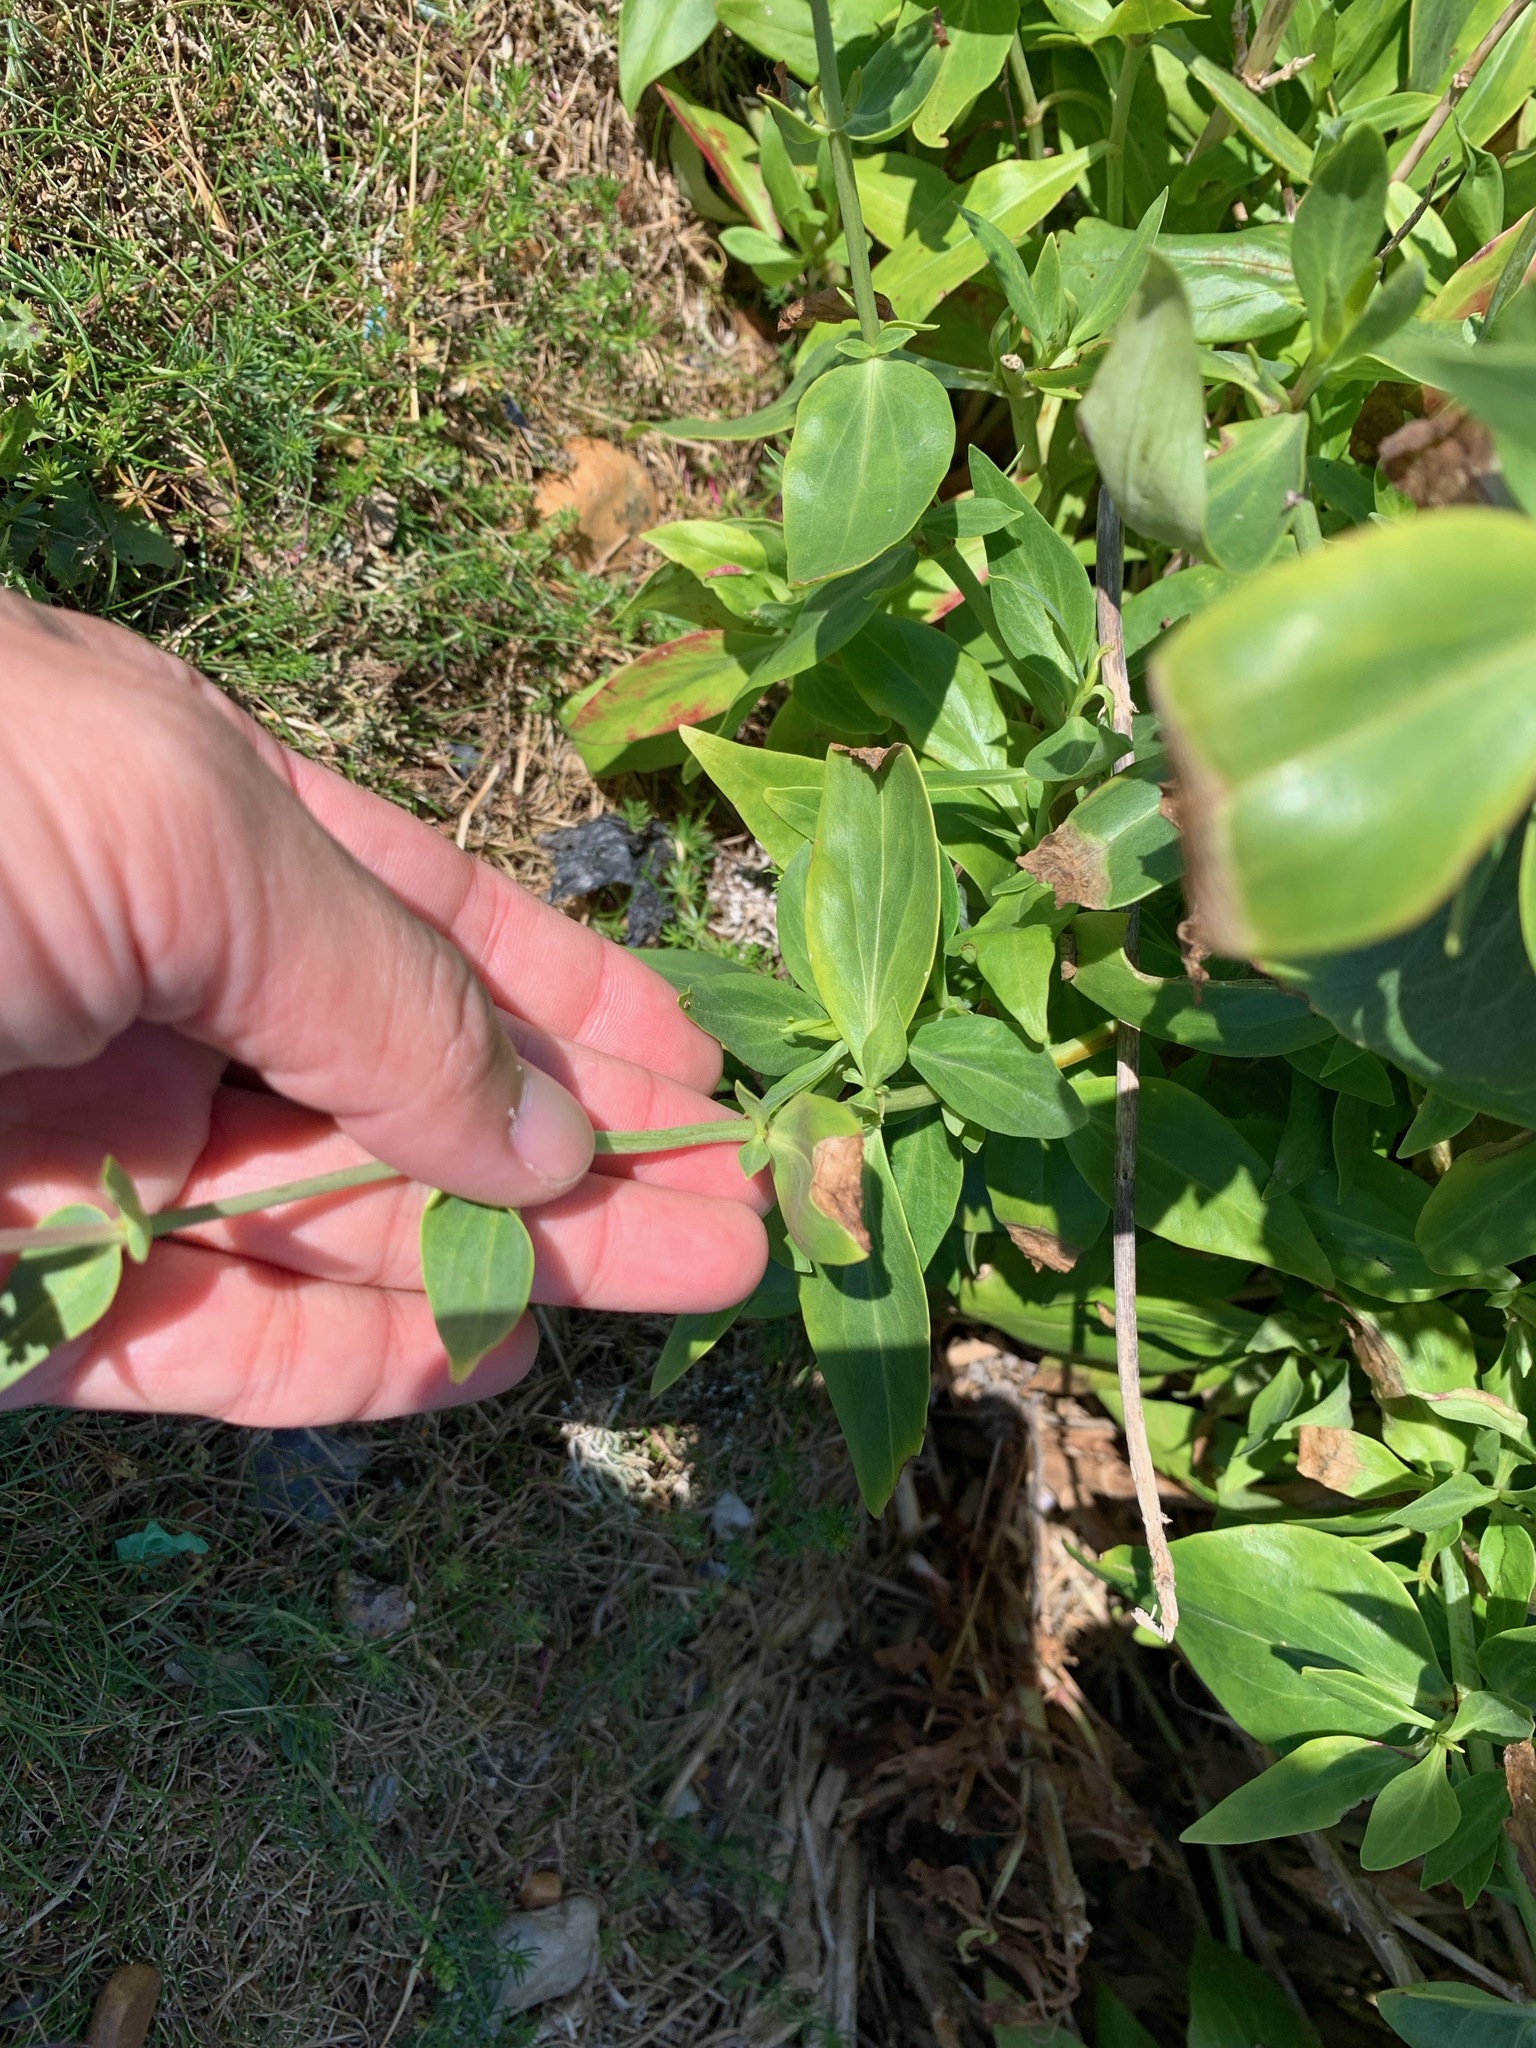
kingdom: Plantae
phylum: Tracheophyta
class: Magnoliopsida
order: Dipsacales
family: Caprifoliaceae
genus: Centranthus
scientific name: Centranthus ruber
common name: Red valerian
